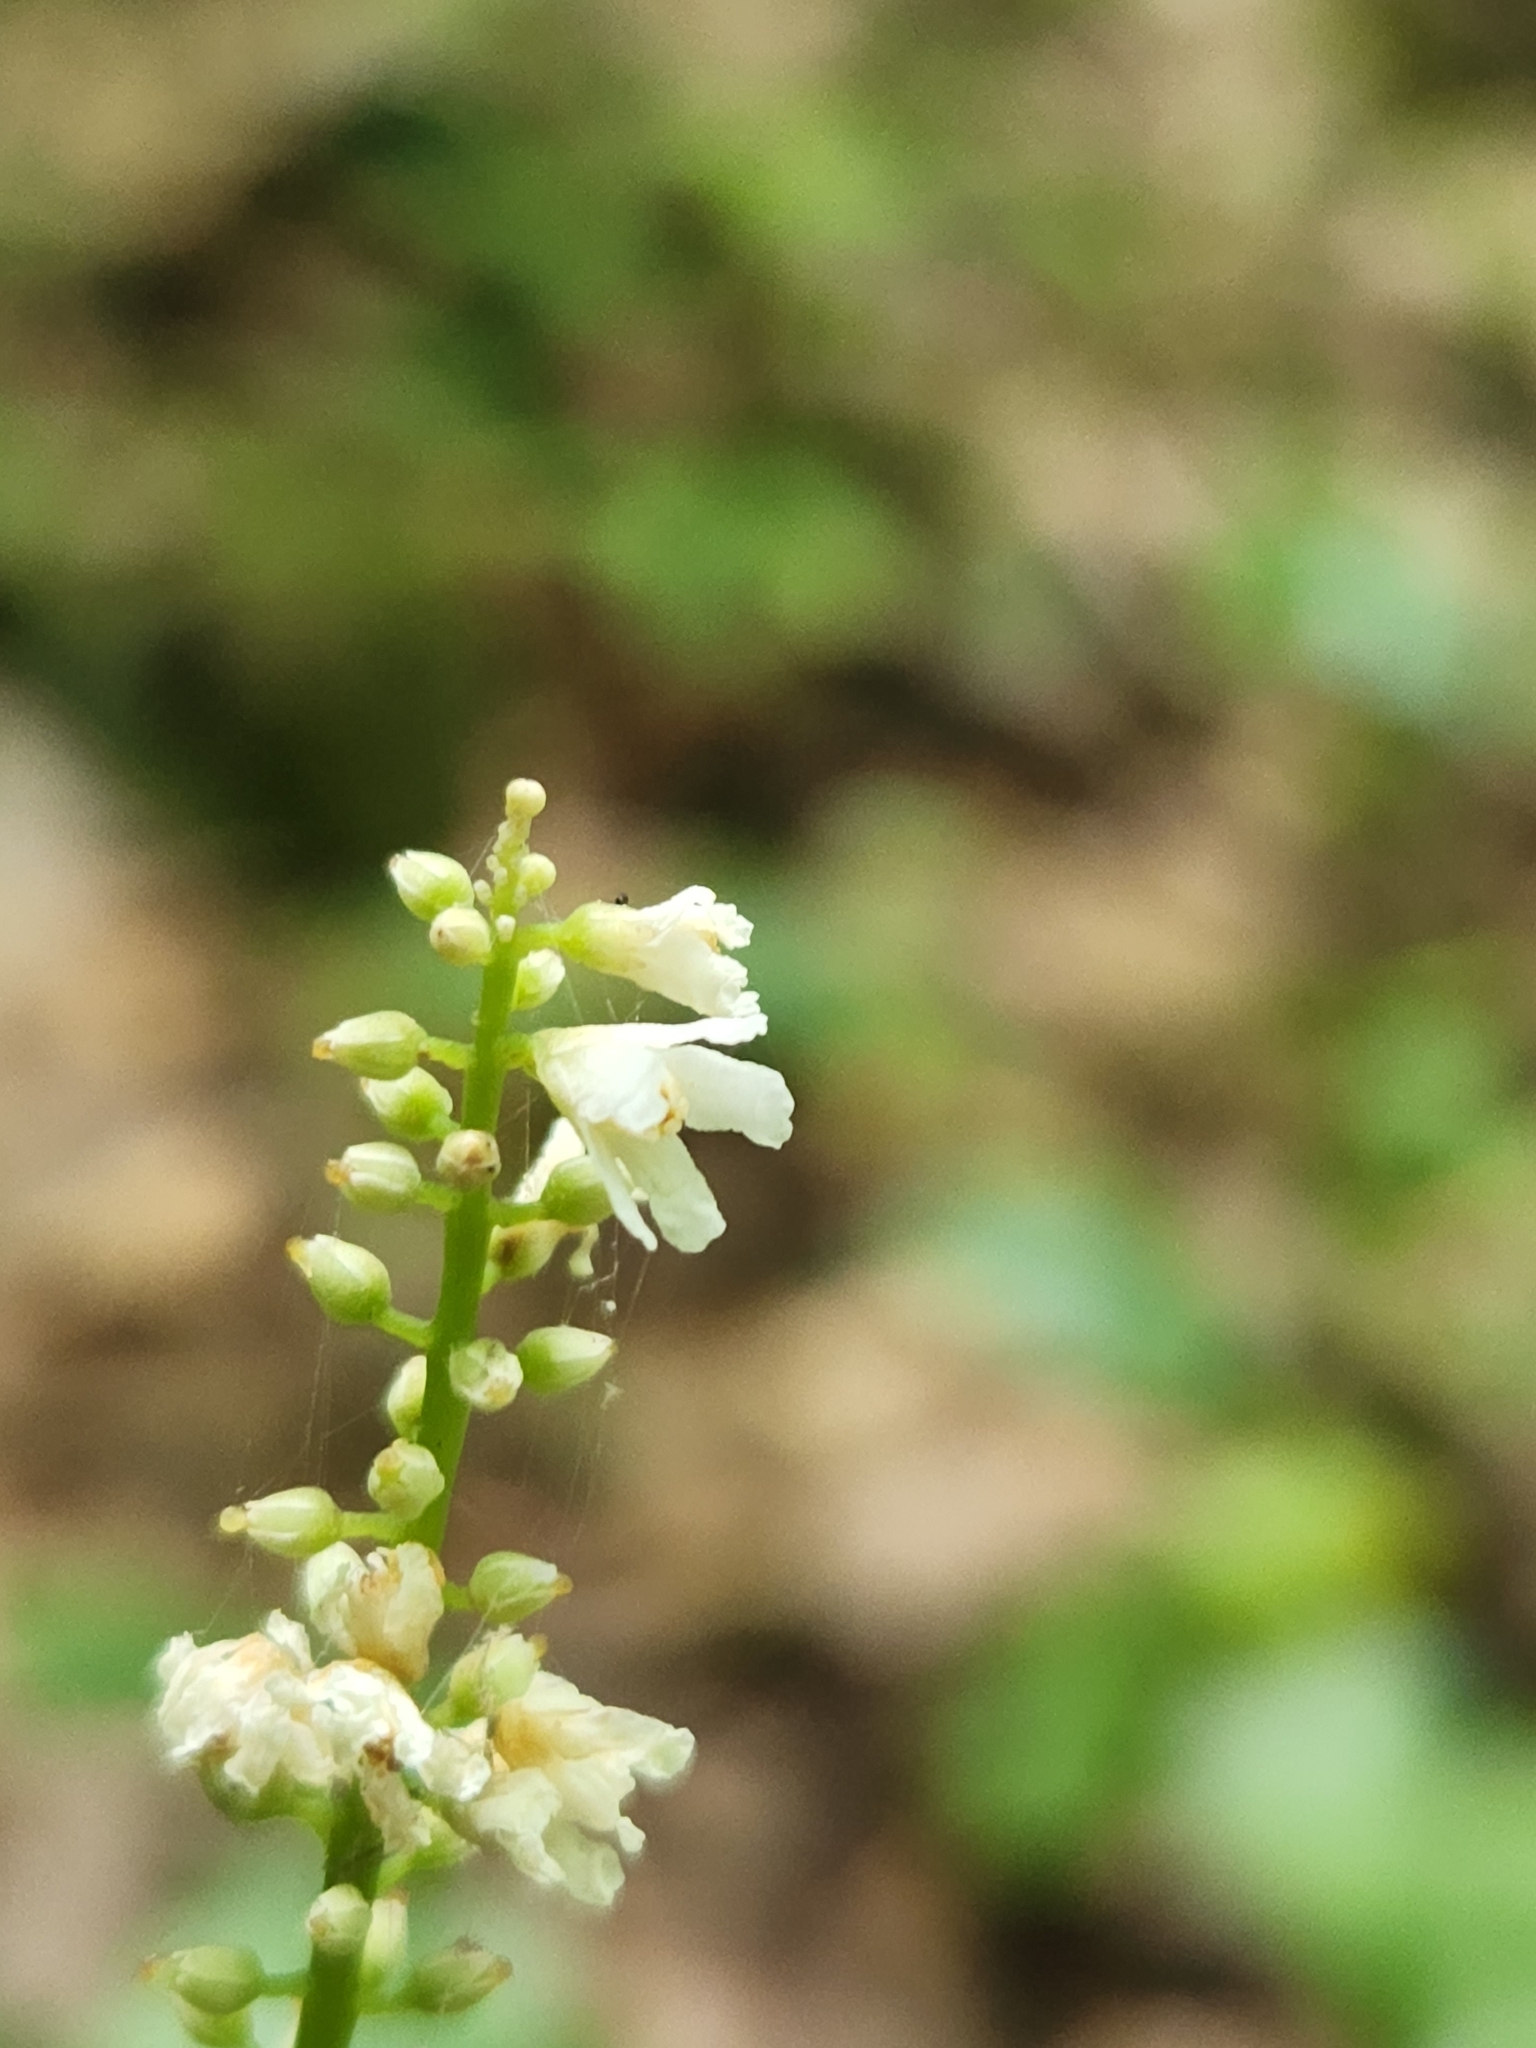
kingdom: Plantae
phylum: Tracheophyta
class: Magnoliopsida
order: Ericales
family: Diapensiaceae
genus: Galax
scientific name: Galax urceolata
